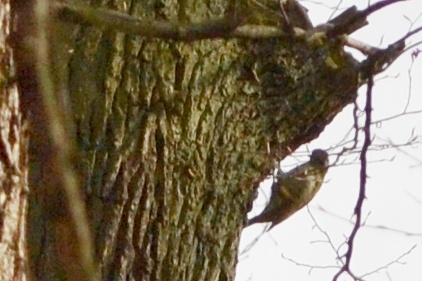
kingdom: Animalia
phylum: Chordata
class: Aves
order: Piciformes
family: Picidae
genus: Picus
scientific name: Picus canus
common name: Grey-headed woodpecker
